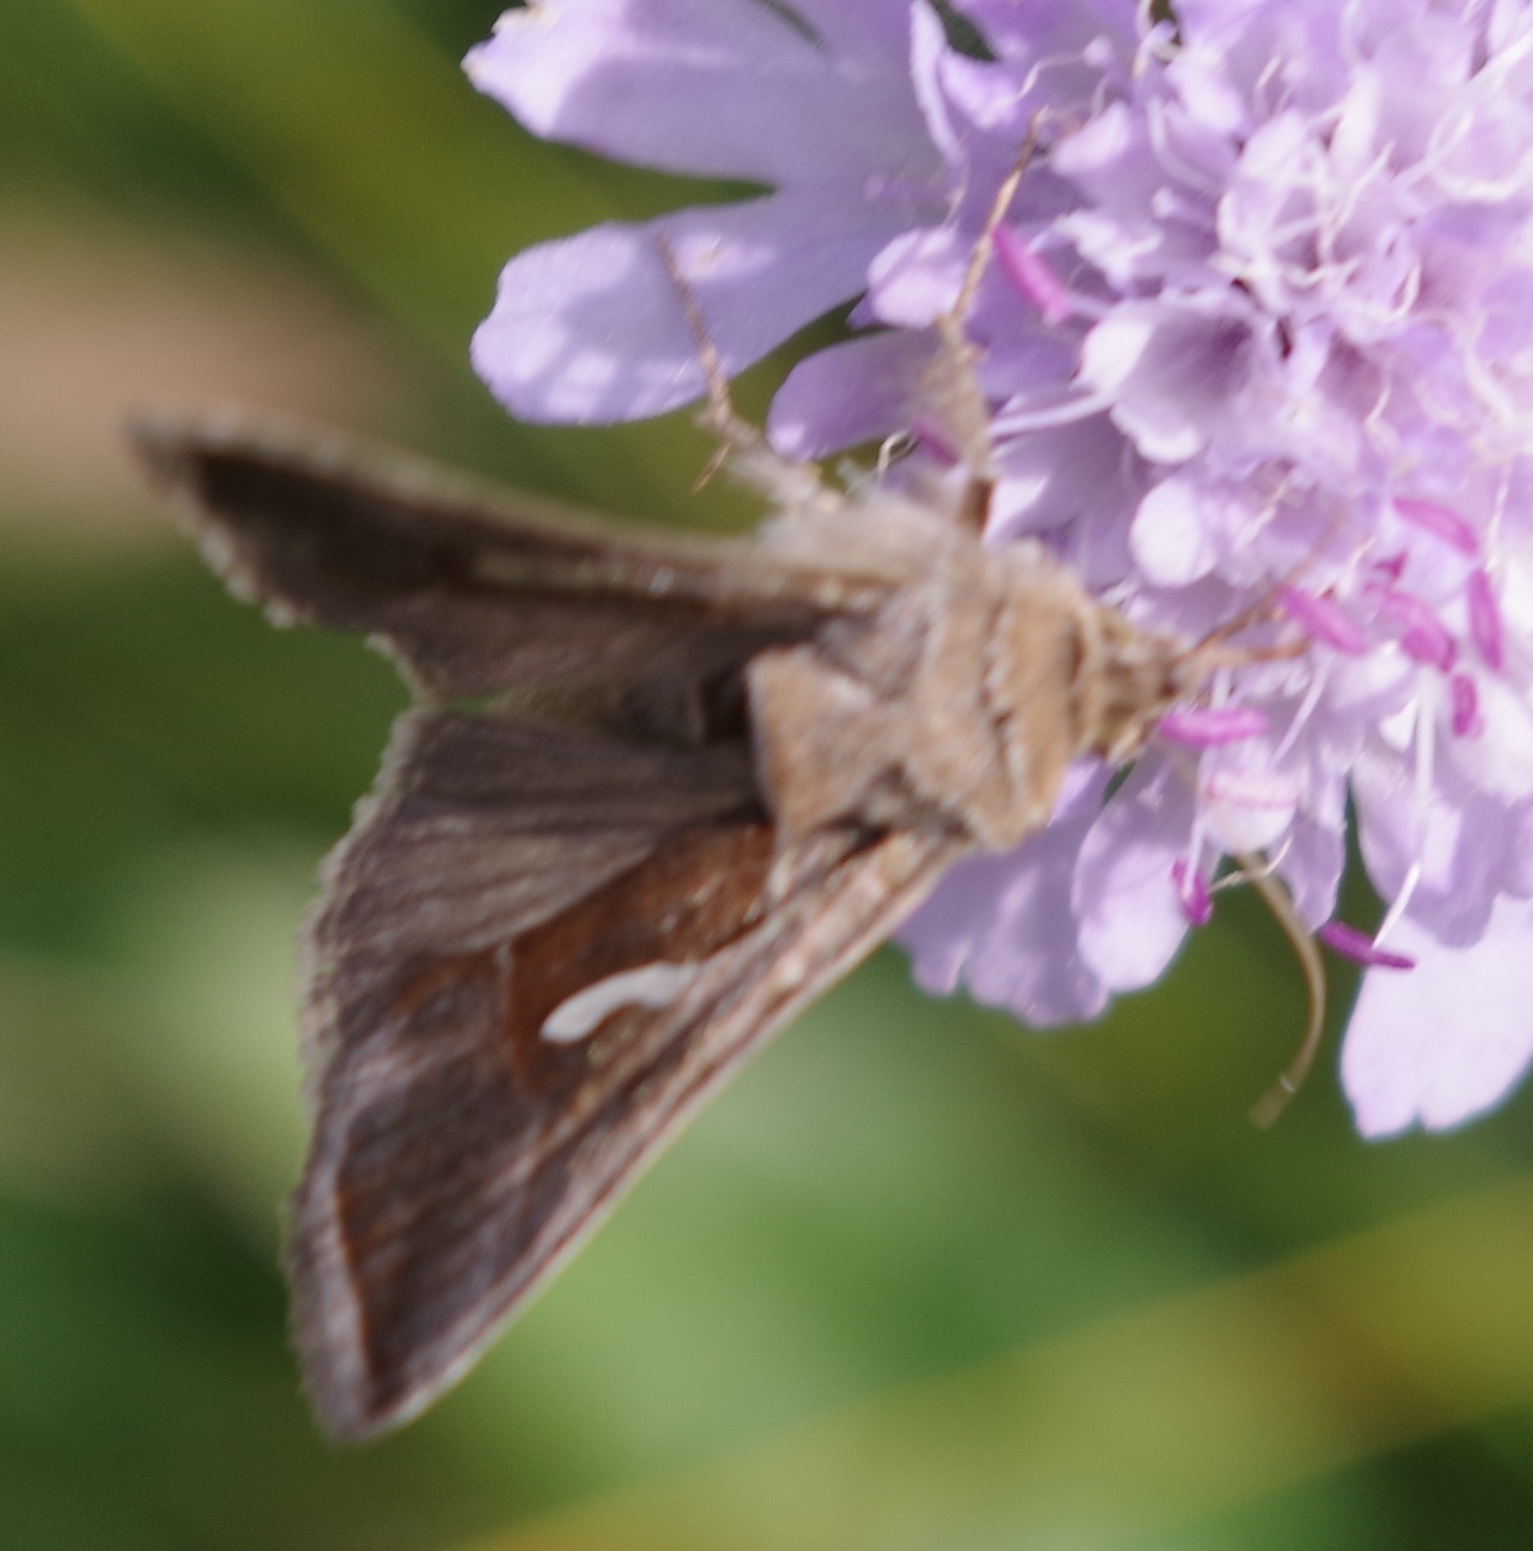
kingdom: Animalia
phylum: Arthropoda
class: Insecta
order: Lepidoptera
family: Noctuidae
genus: Macdunnoughia
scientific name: Macdunnoughia confusa
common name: Dewick's plusia
